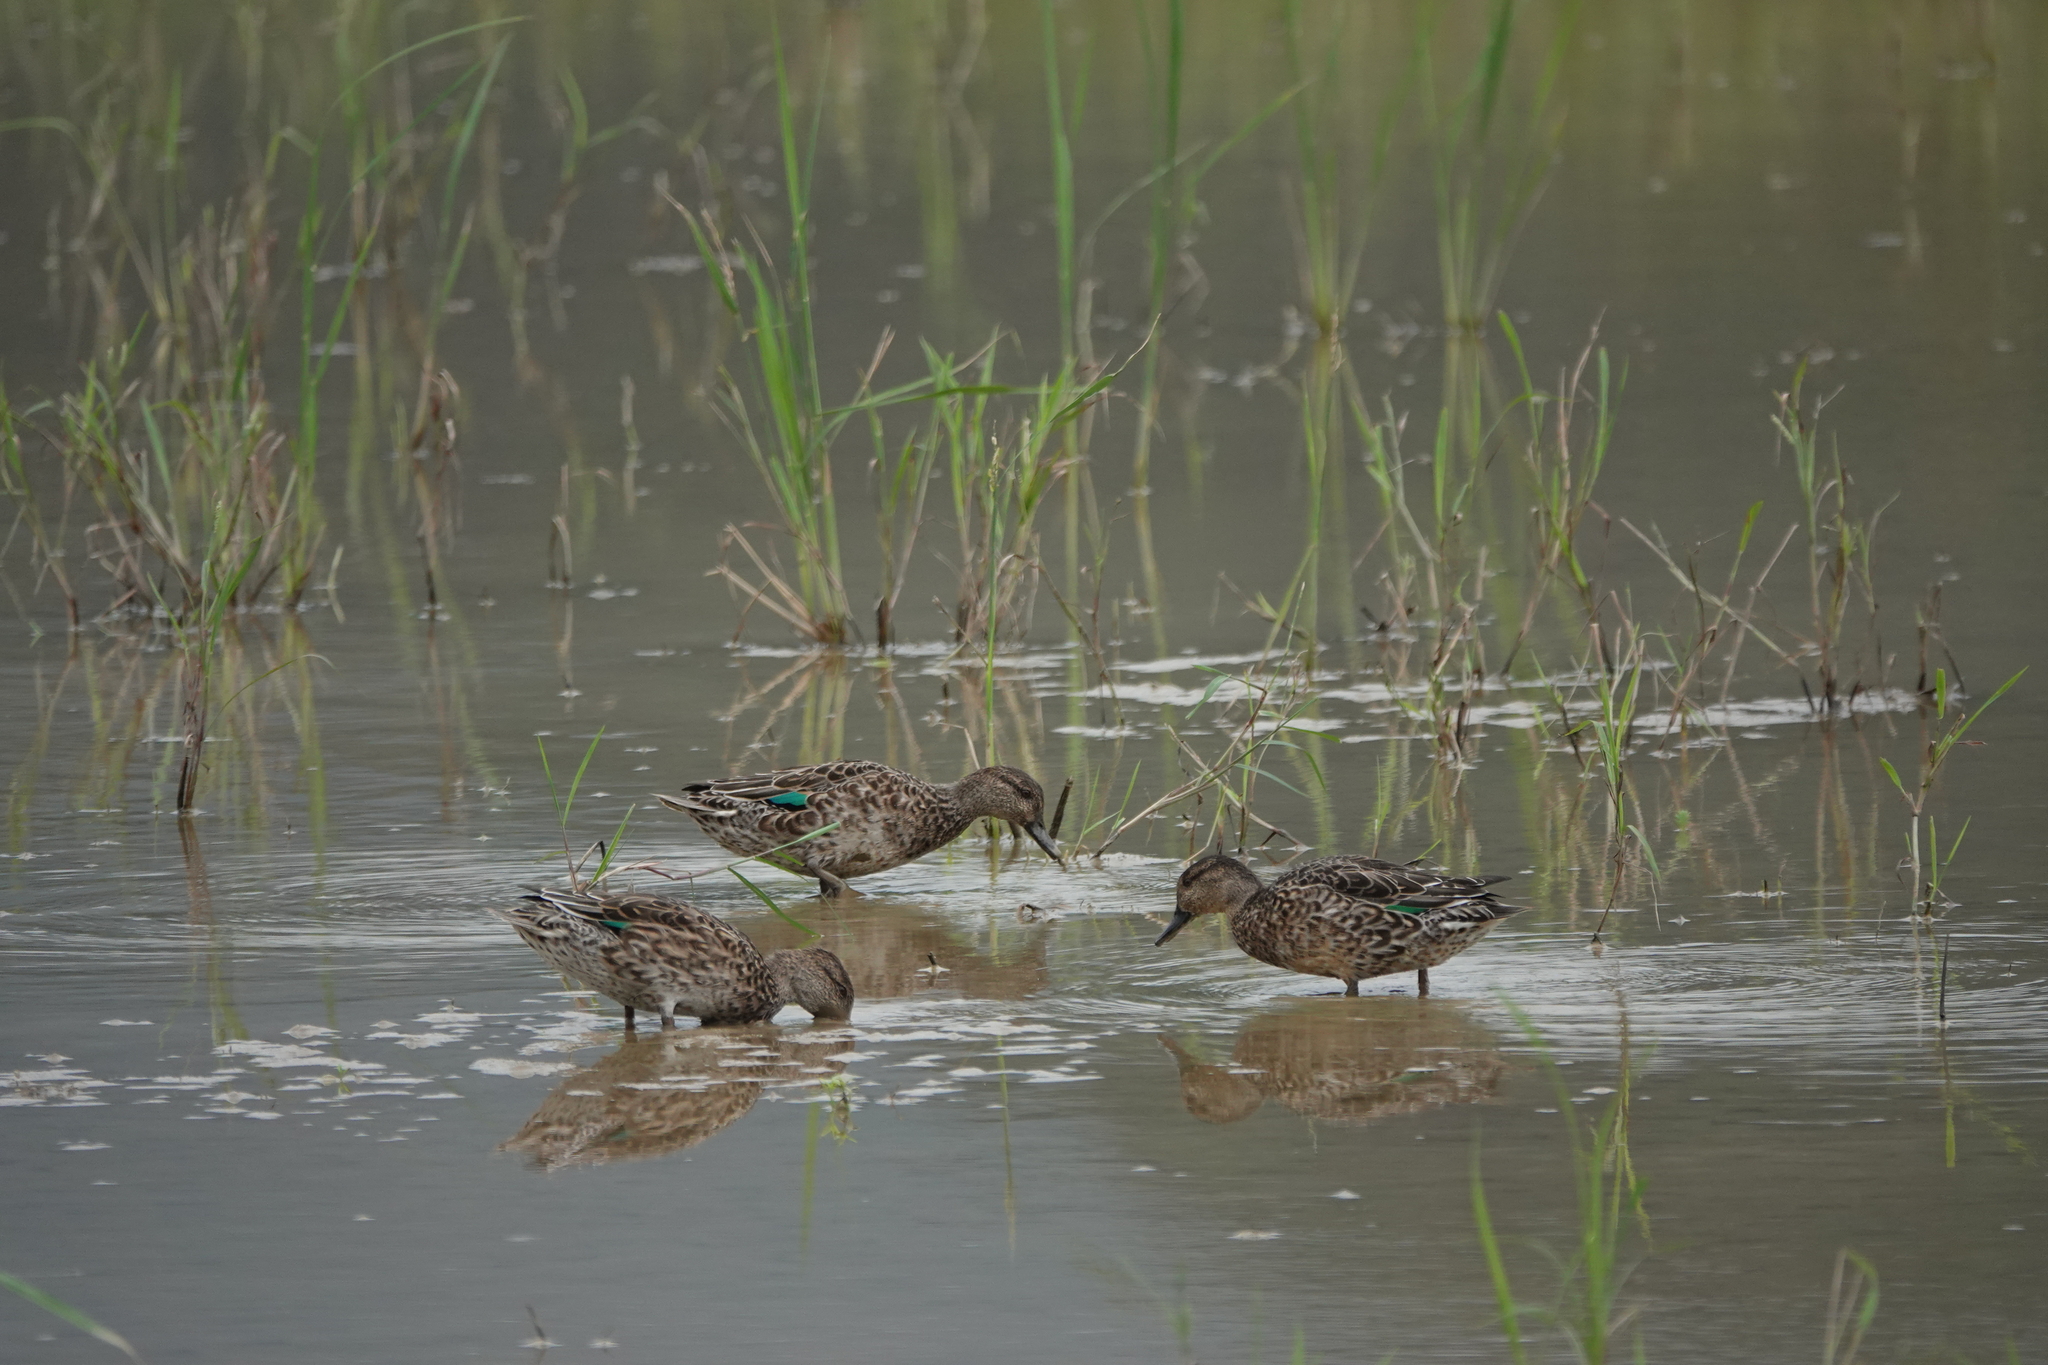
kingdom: Animalia
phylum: Chordata
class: Aves
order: Anseriformes
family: Anatidae
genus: Anas
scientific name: Anas crecca
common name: Eurasian teal
